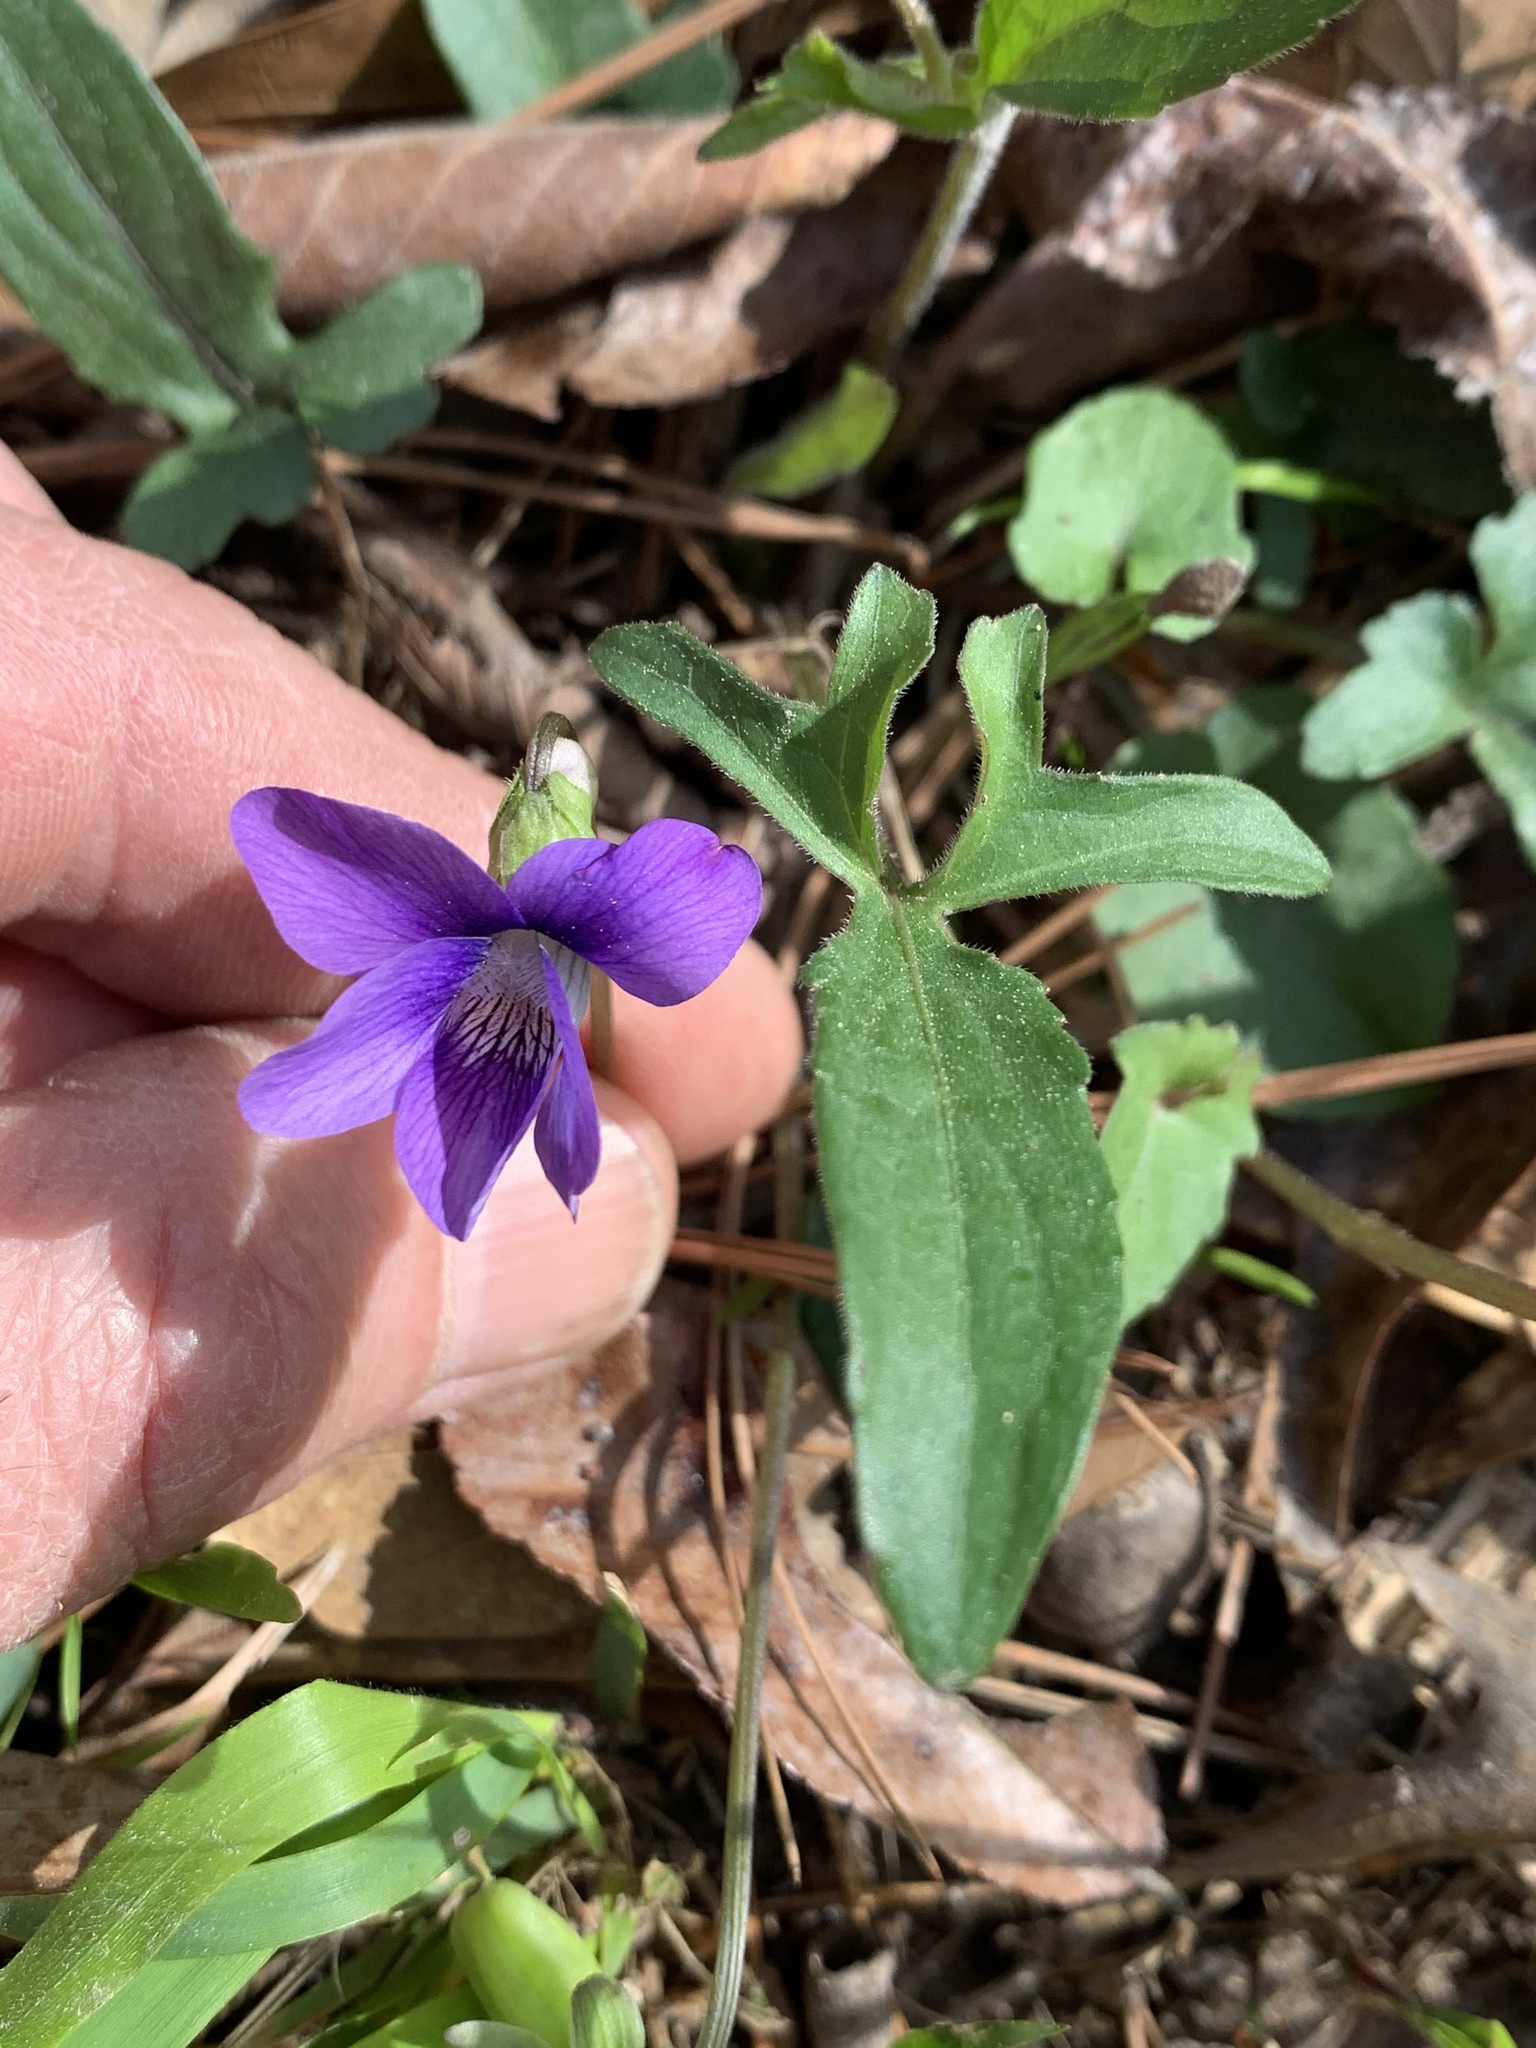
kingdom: Plantae
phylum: Tracheophyta
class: Magnoliopsida
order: Malpighiales
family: Violaceae
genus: Viola
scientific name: Viola palmata
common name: Early blue violet
